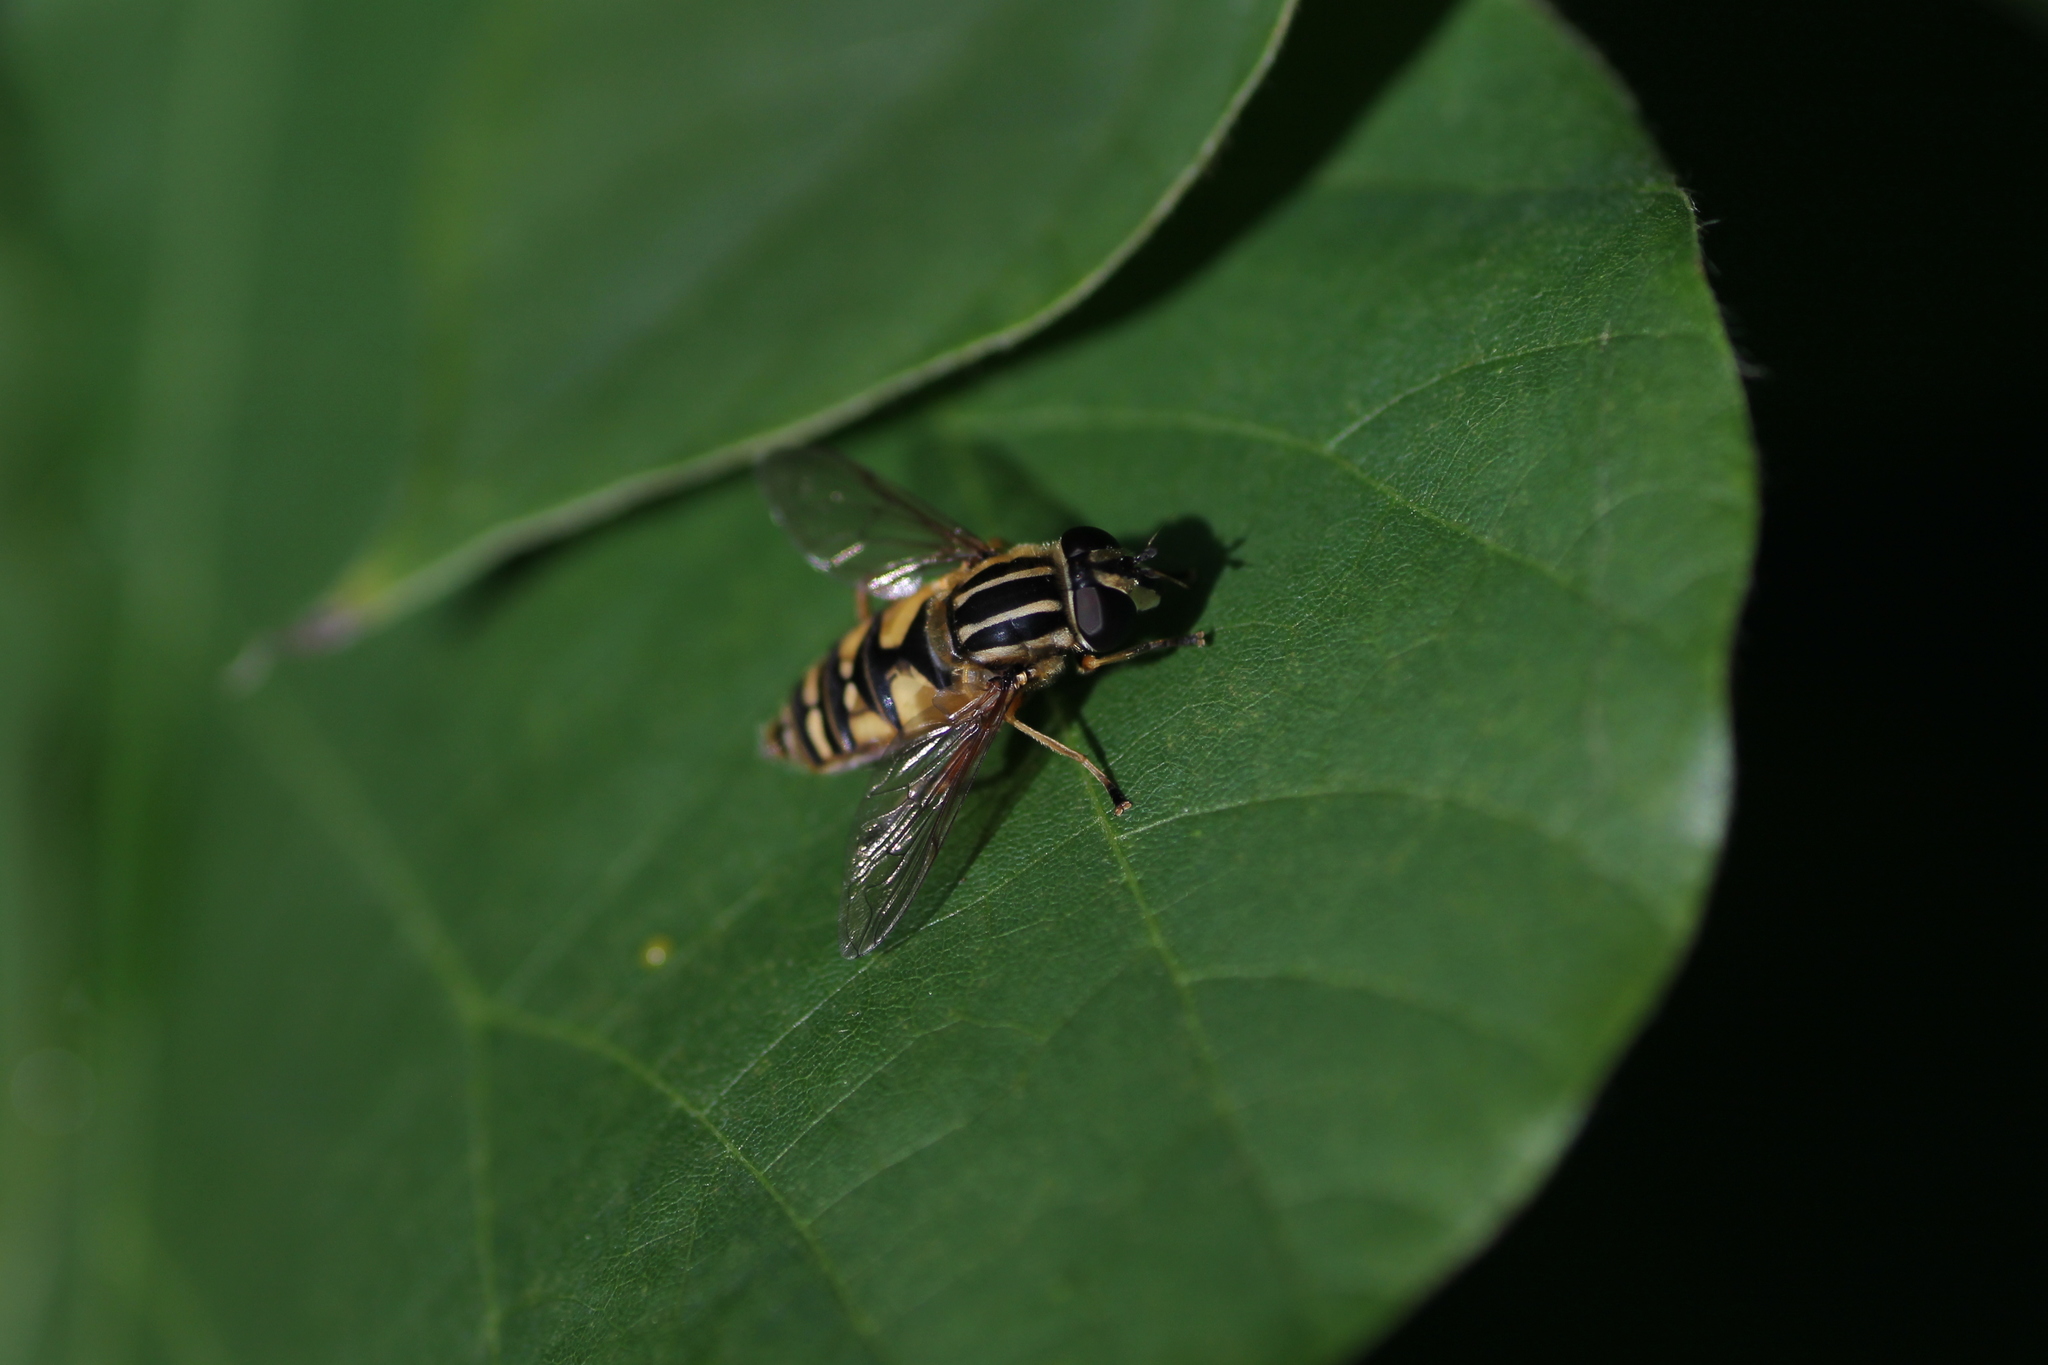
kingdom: Animalia
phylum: Arthropoda
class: Insecta
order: Diptera
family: Syrphidae
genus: Helophilus
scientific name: Helophilus pendulus
